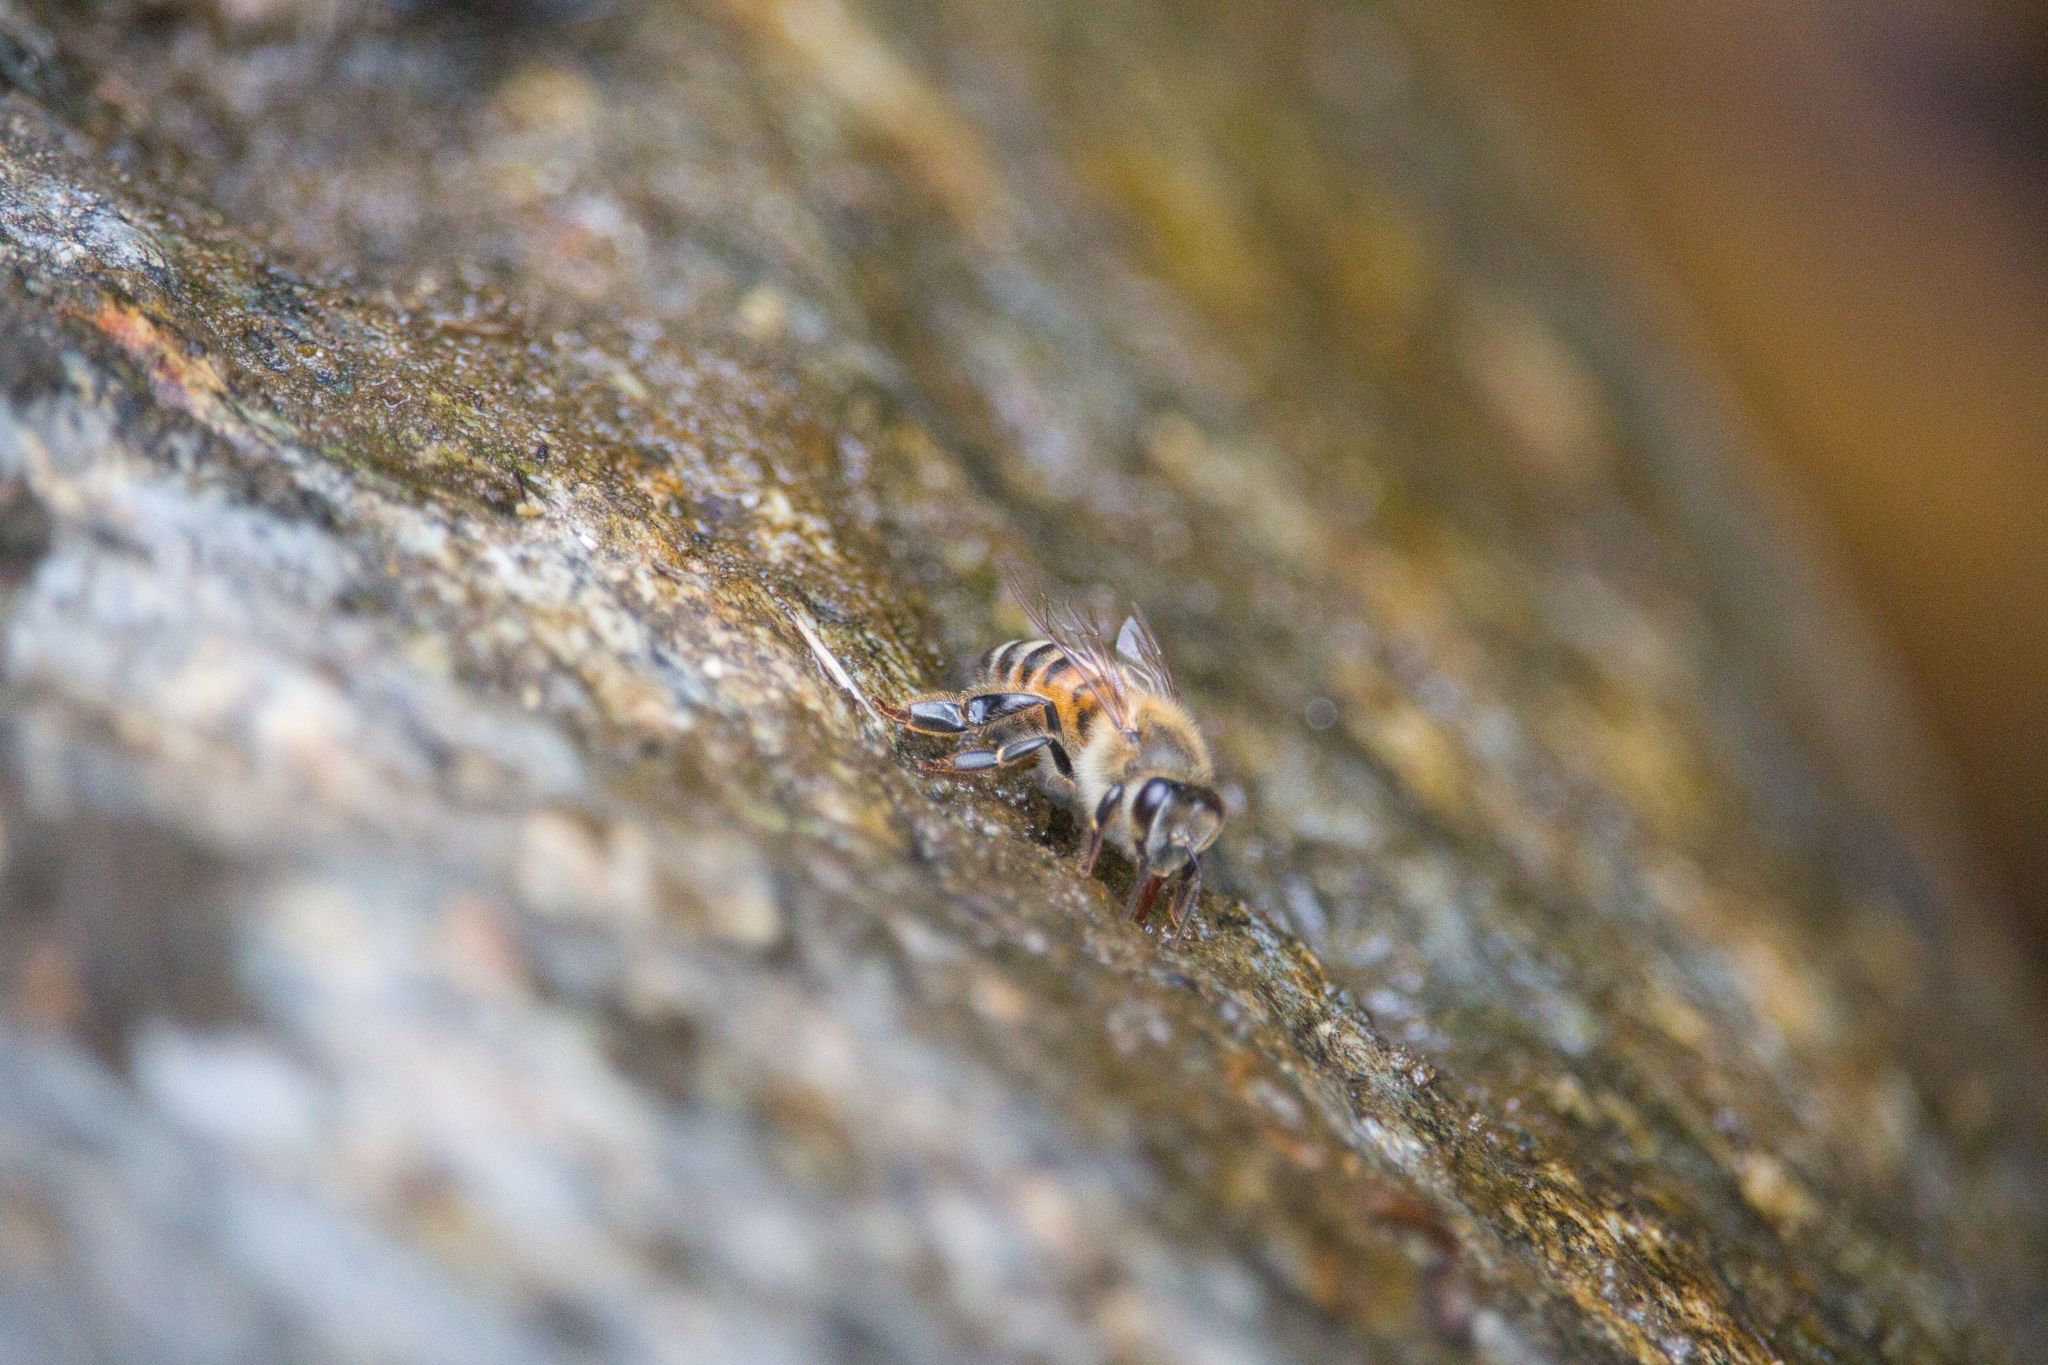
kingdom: Animalia
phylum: Arthropoda
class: Insecta
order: Hymenoptera
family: Apidae
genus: Apis
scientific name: Apis mellifera
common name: Honey bee
